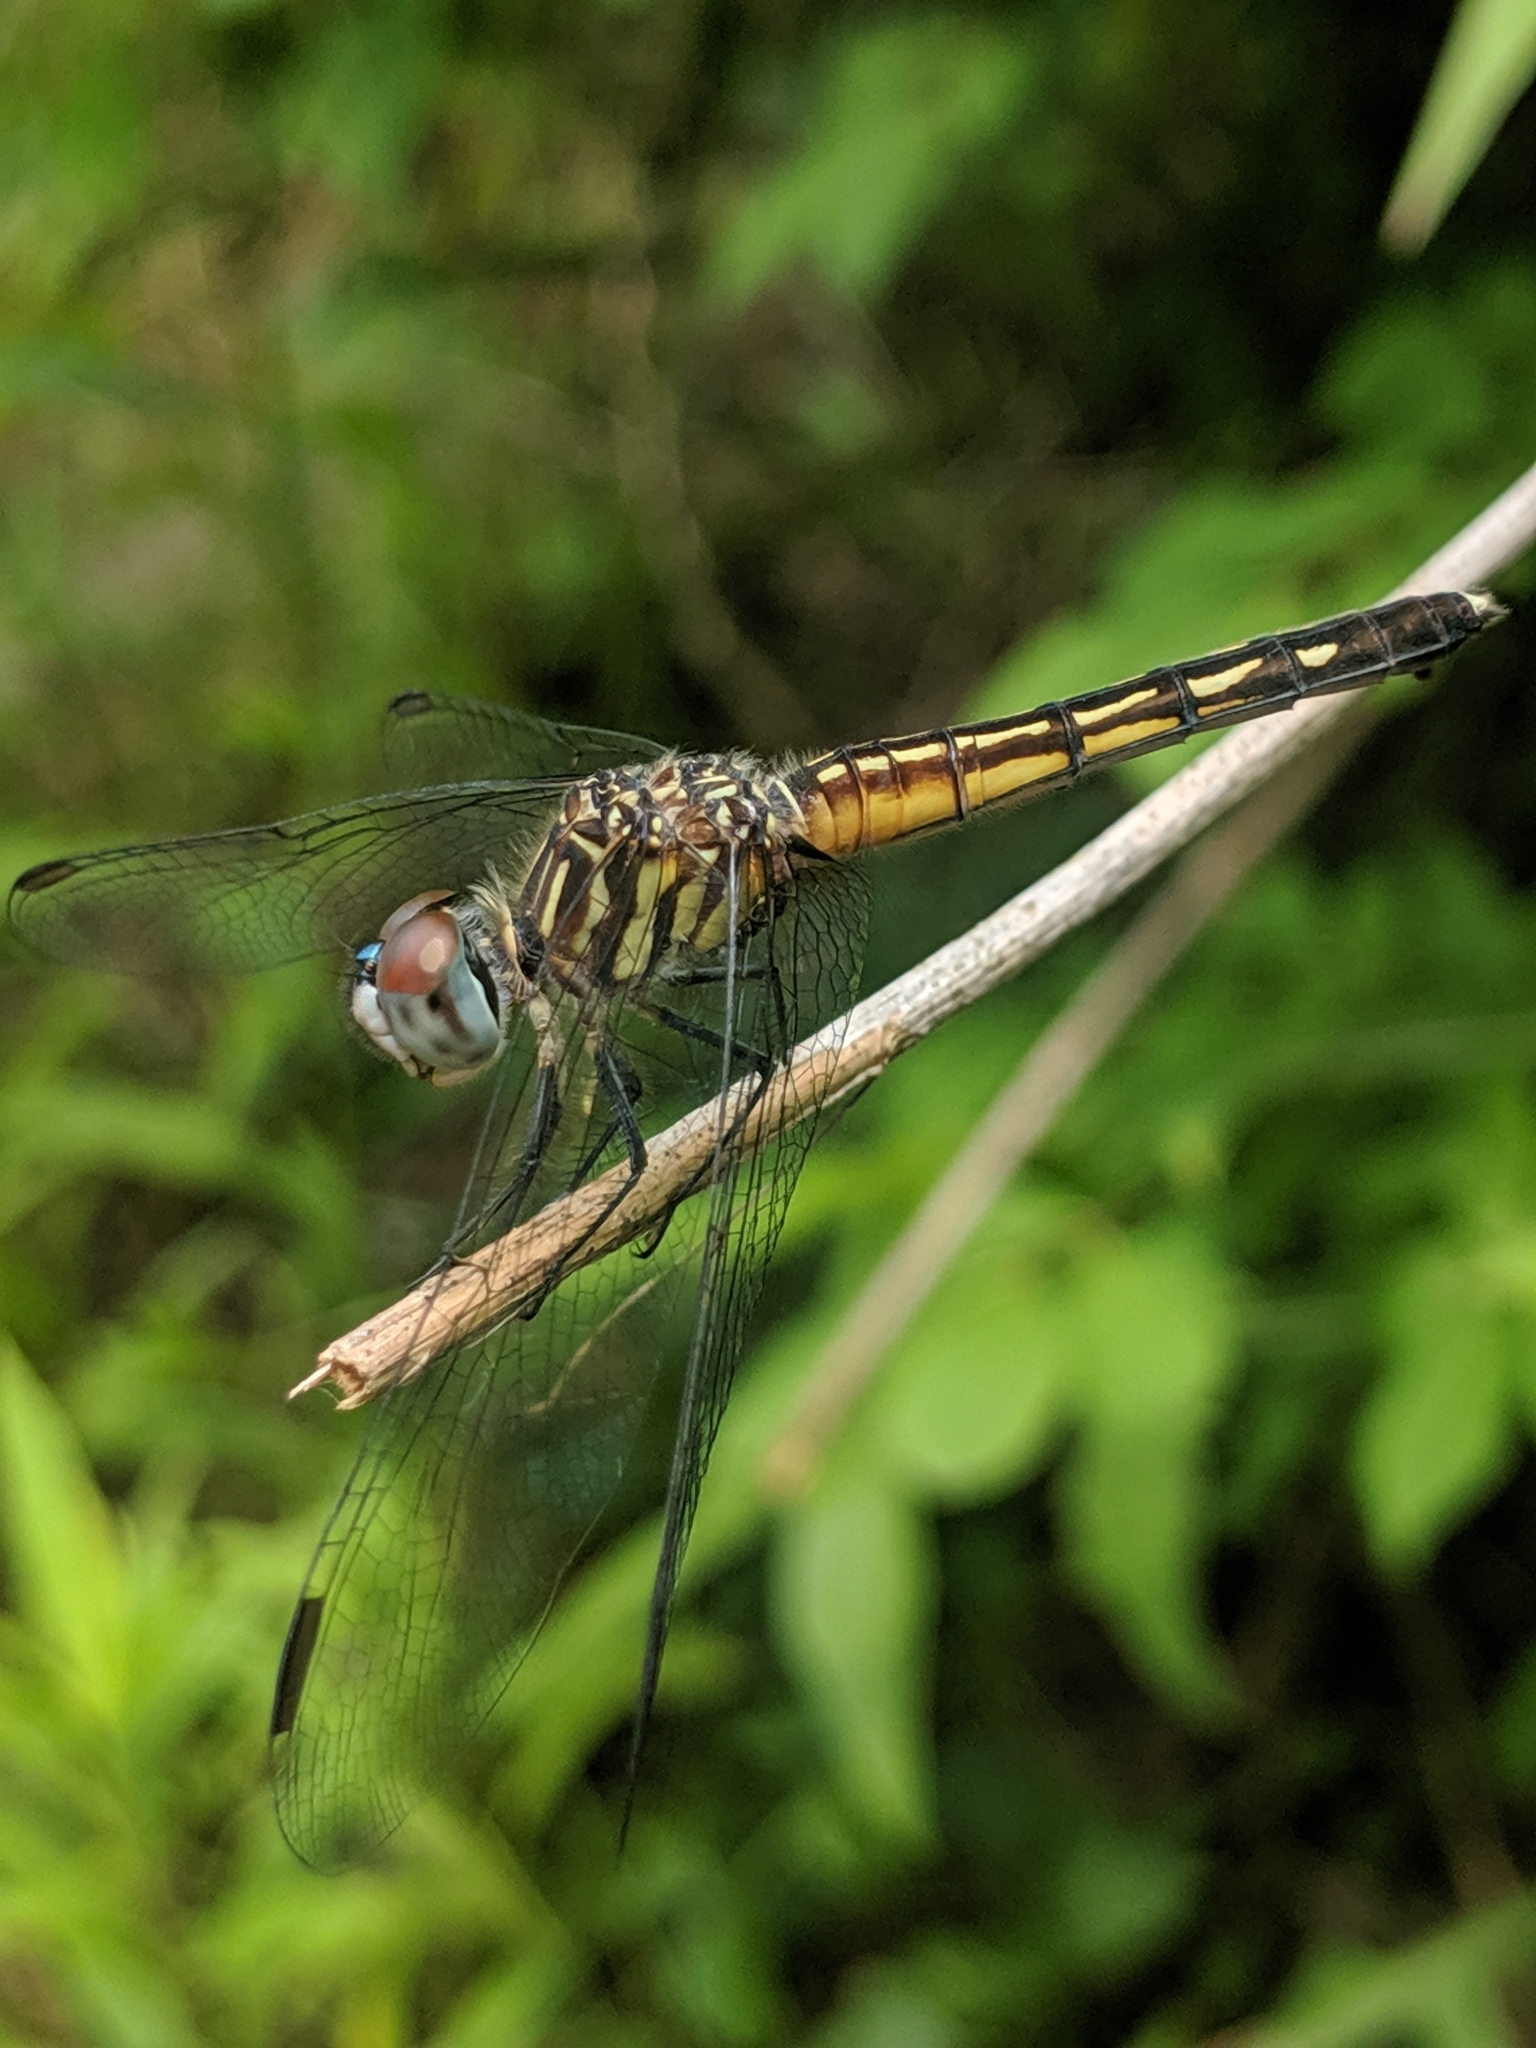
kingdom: Animalia
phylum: Arthropoda
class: Insecta
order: Odonata
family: Libellulidae
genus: Pachydiplax
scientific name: Pachydiplax longipennis
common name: Blue dasher
